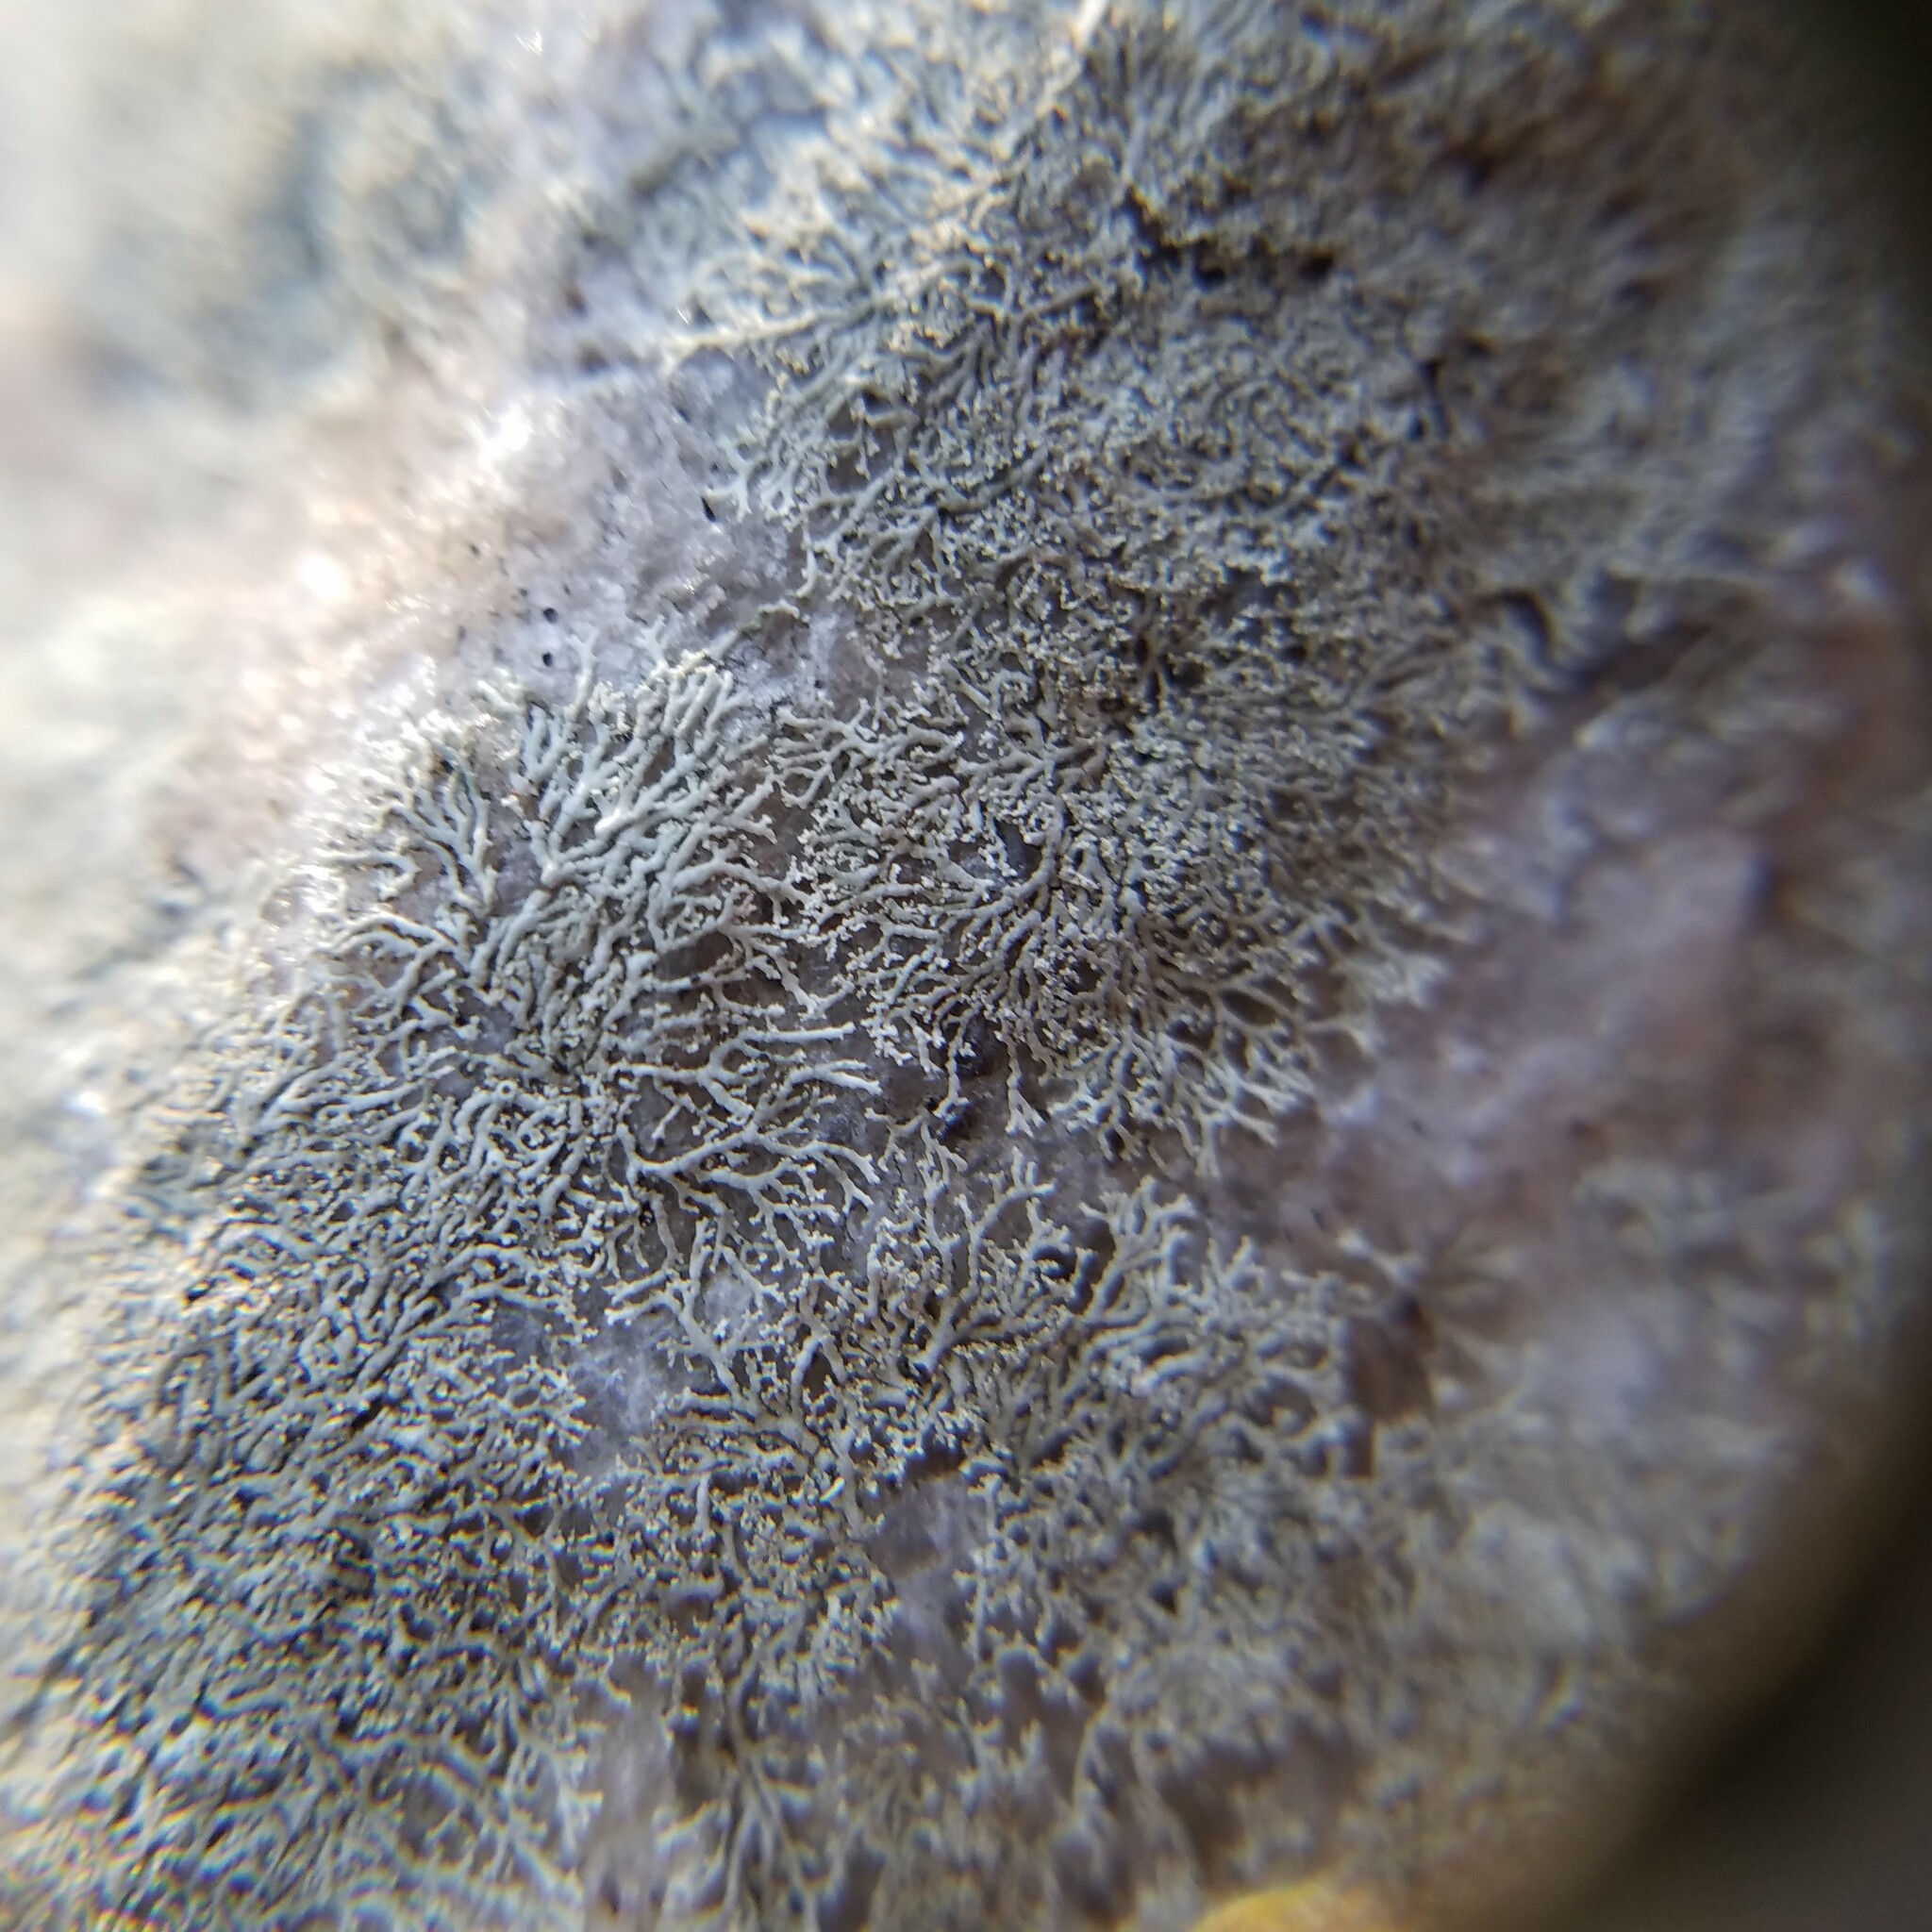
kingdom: Fungi
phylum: Ascomycota
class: Lecanoromycetes
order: Caliciales
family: Physciaceae
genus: Physcia
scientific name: Physcia subtilis
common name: Slender rosette lichen
